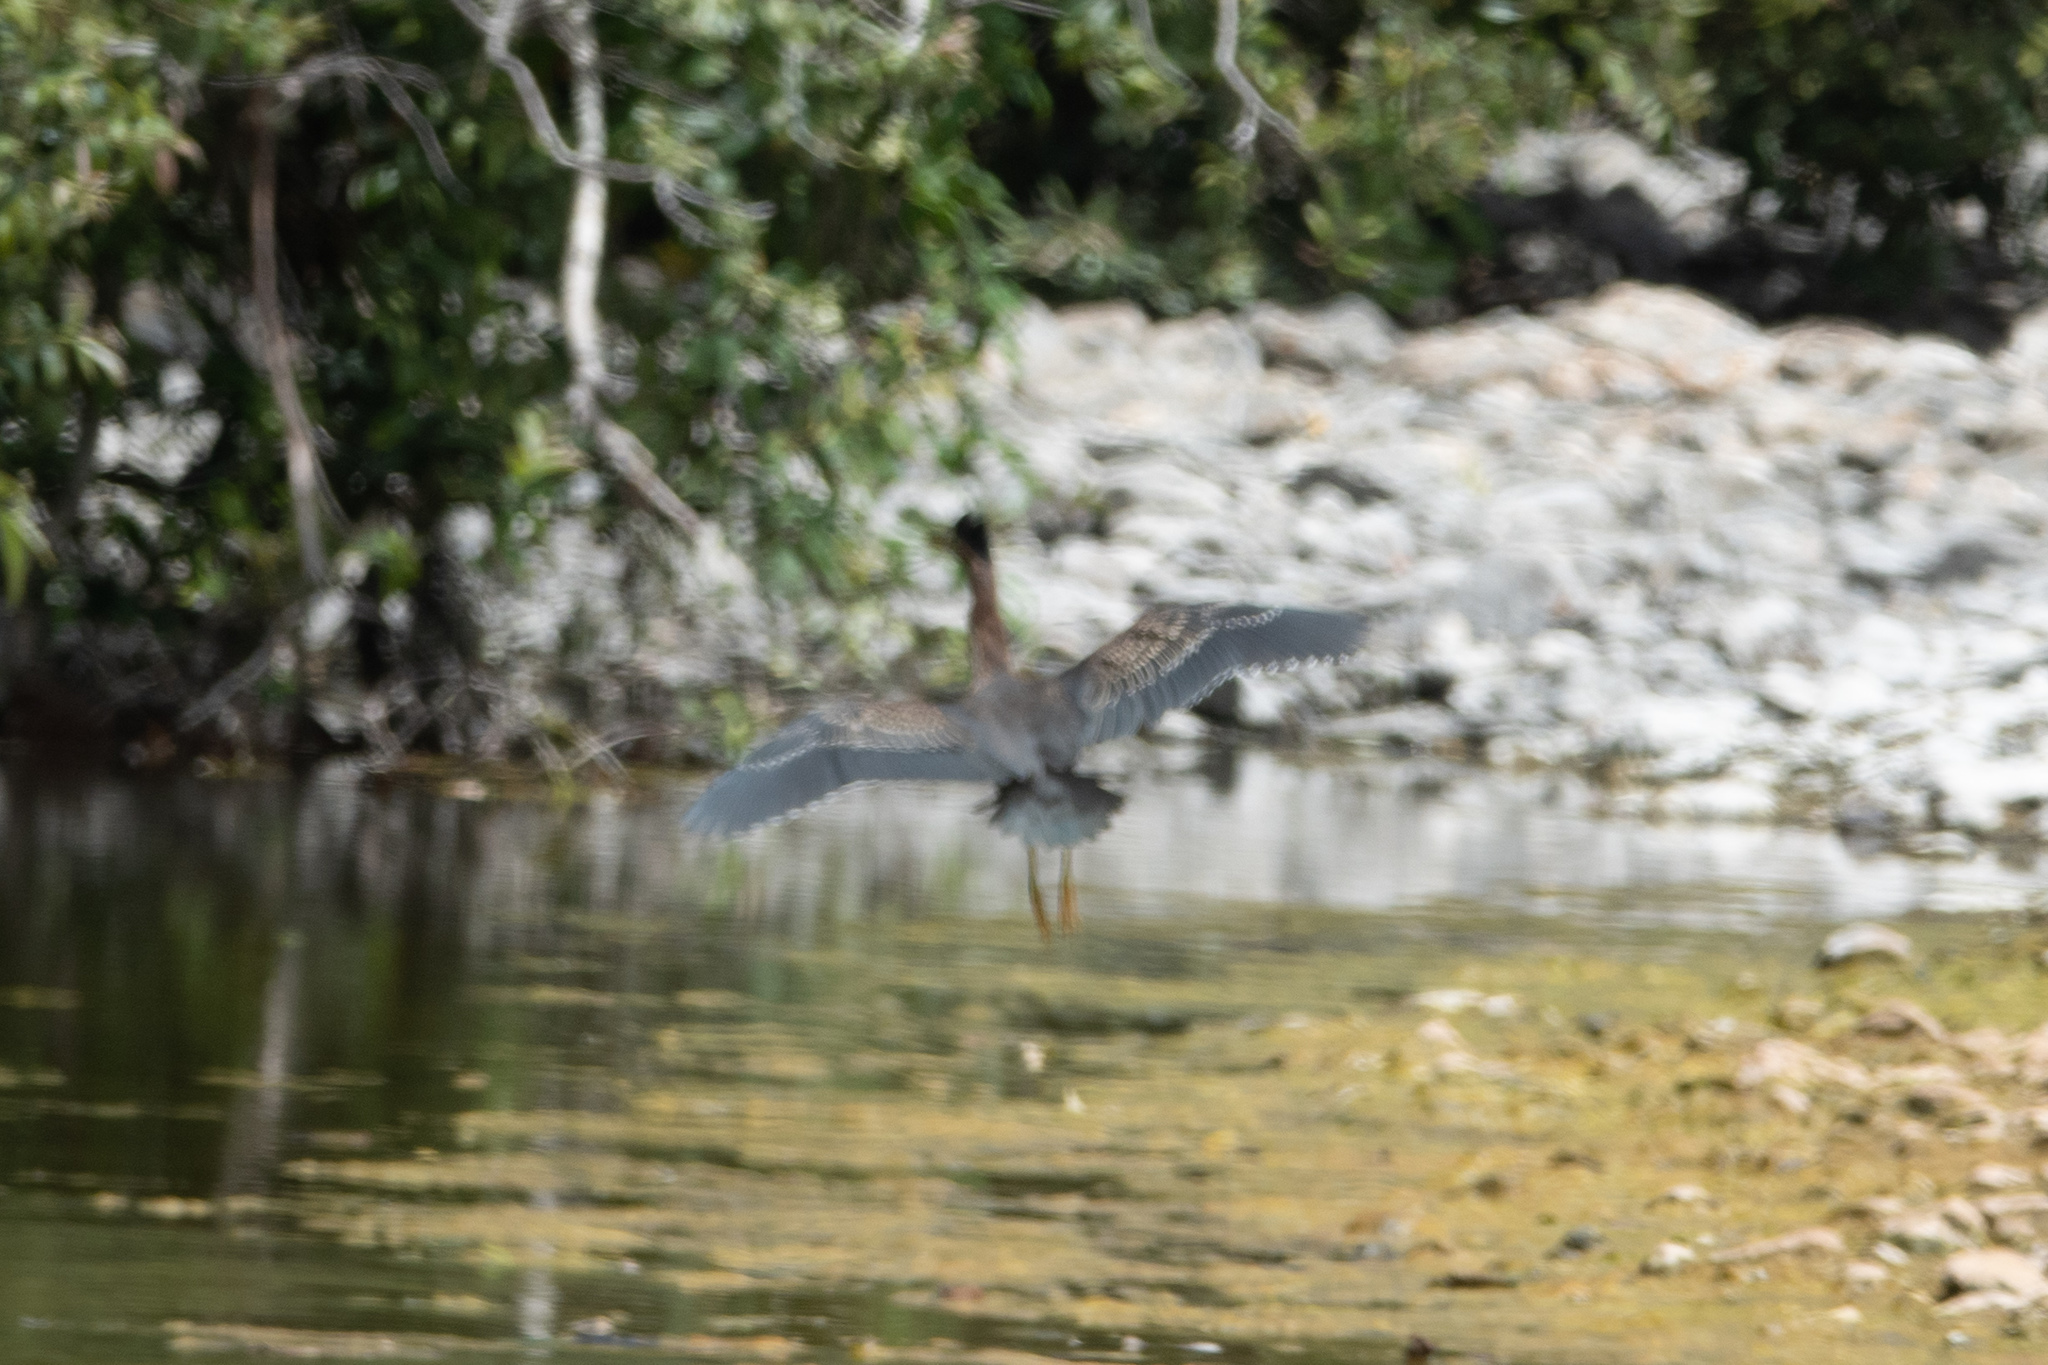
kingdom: Animalia
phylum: Chordata
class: Aves
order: Pelecaniformes
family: Ardeidae
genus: Butorides
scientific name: Butorides virescens
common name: Green heron
